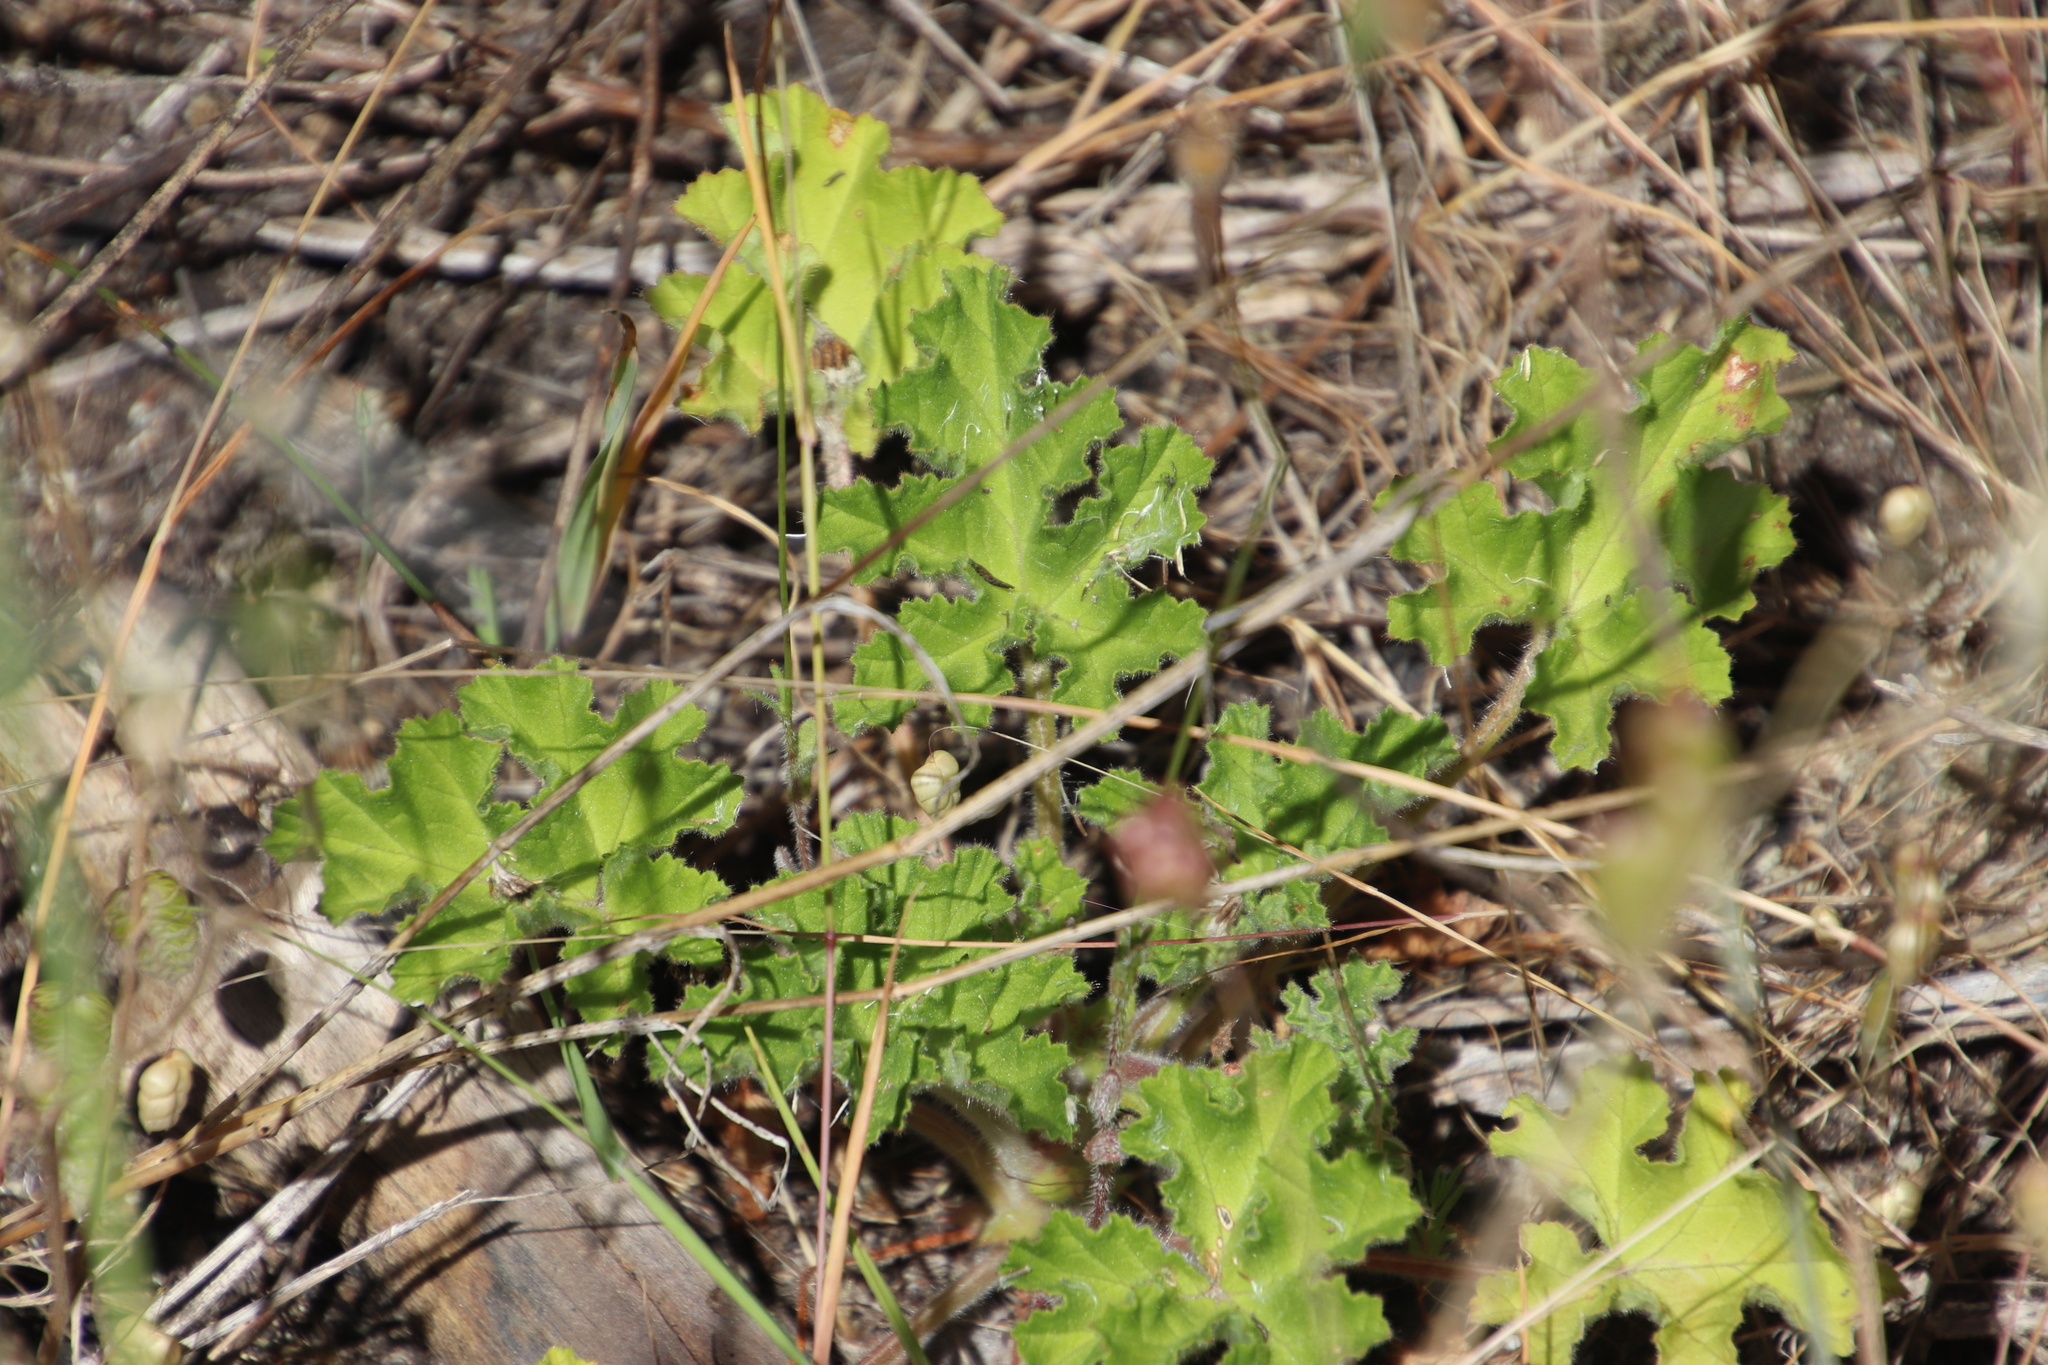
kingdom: Plantae
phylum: Tracheophyta
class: Magnoliopsida
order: Geraniales
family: Geraniaceae
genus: Pelargonium
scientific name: Pelargonium capitatum
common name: Rose scented geranium
